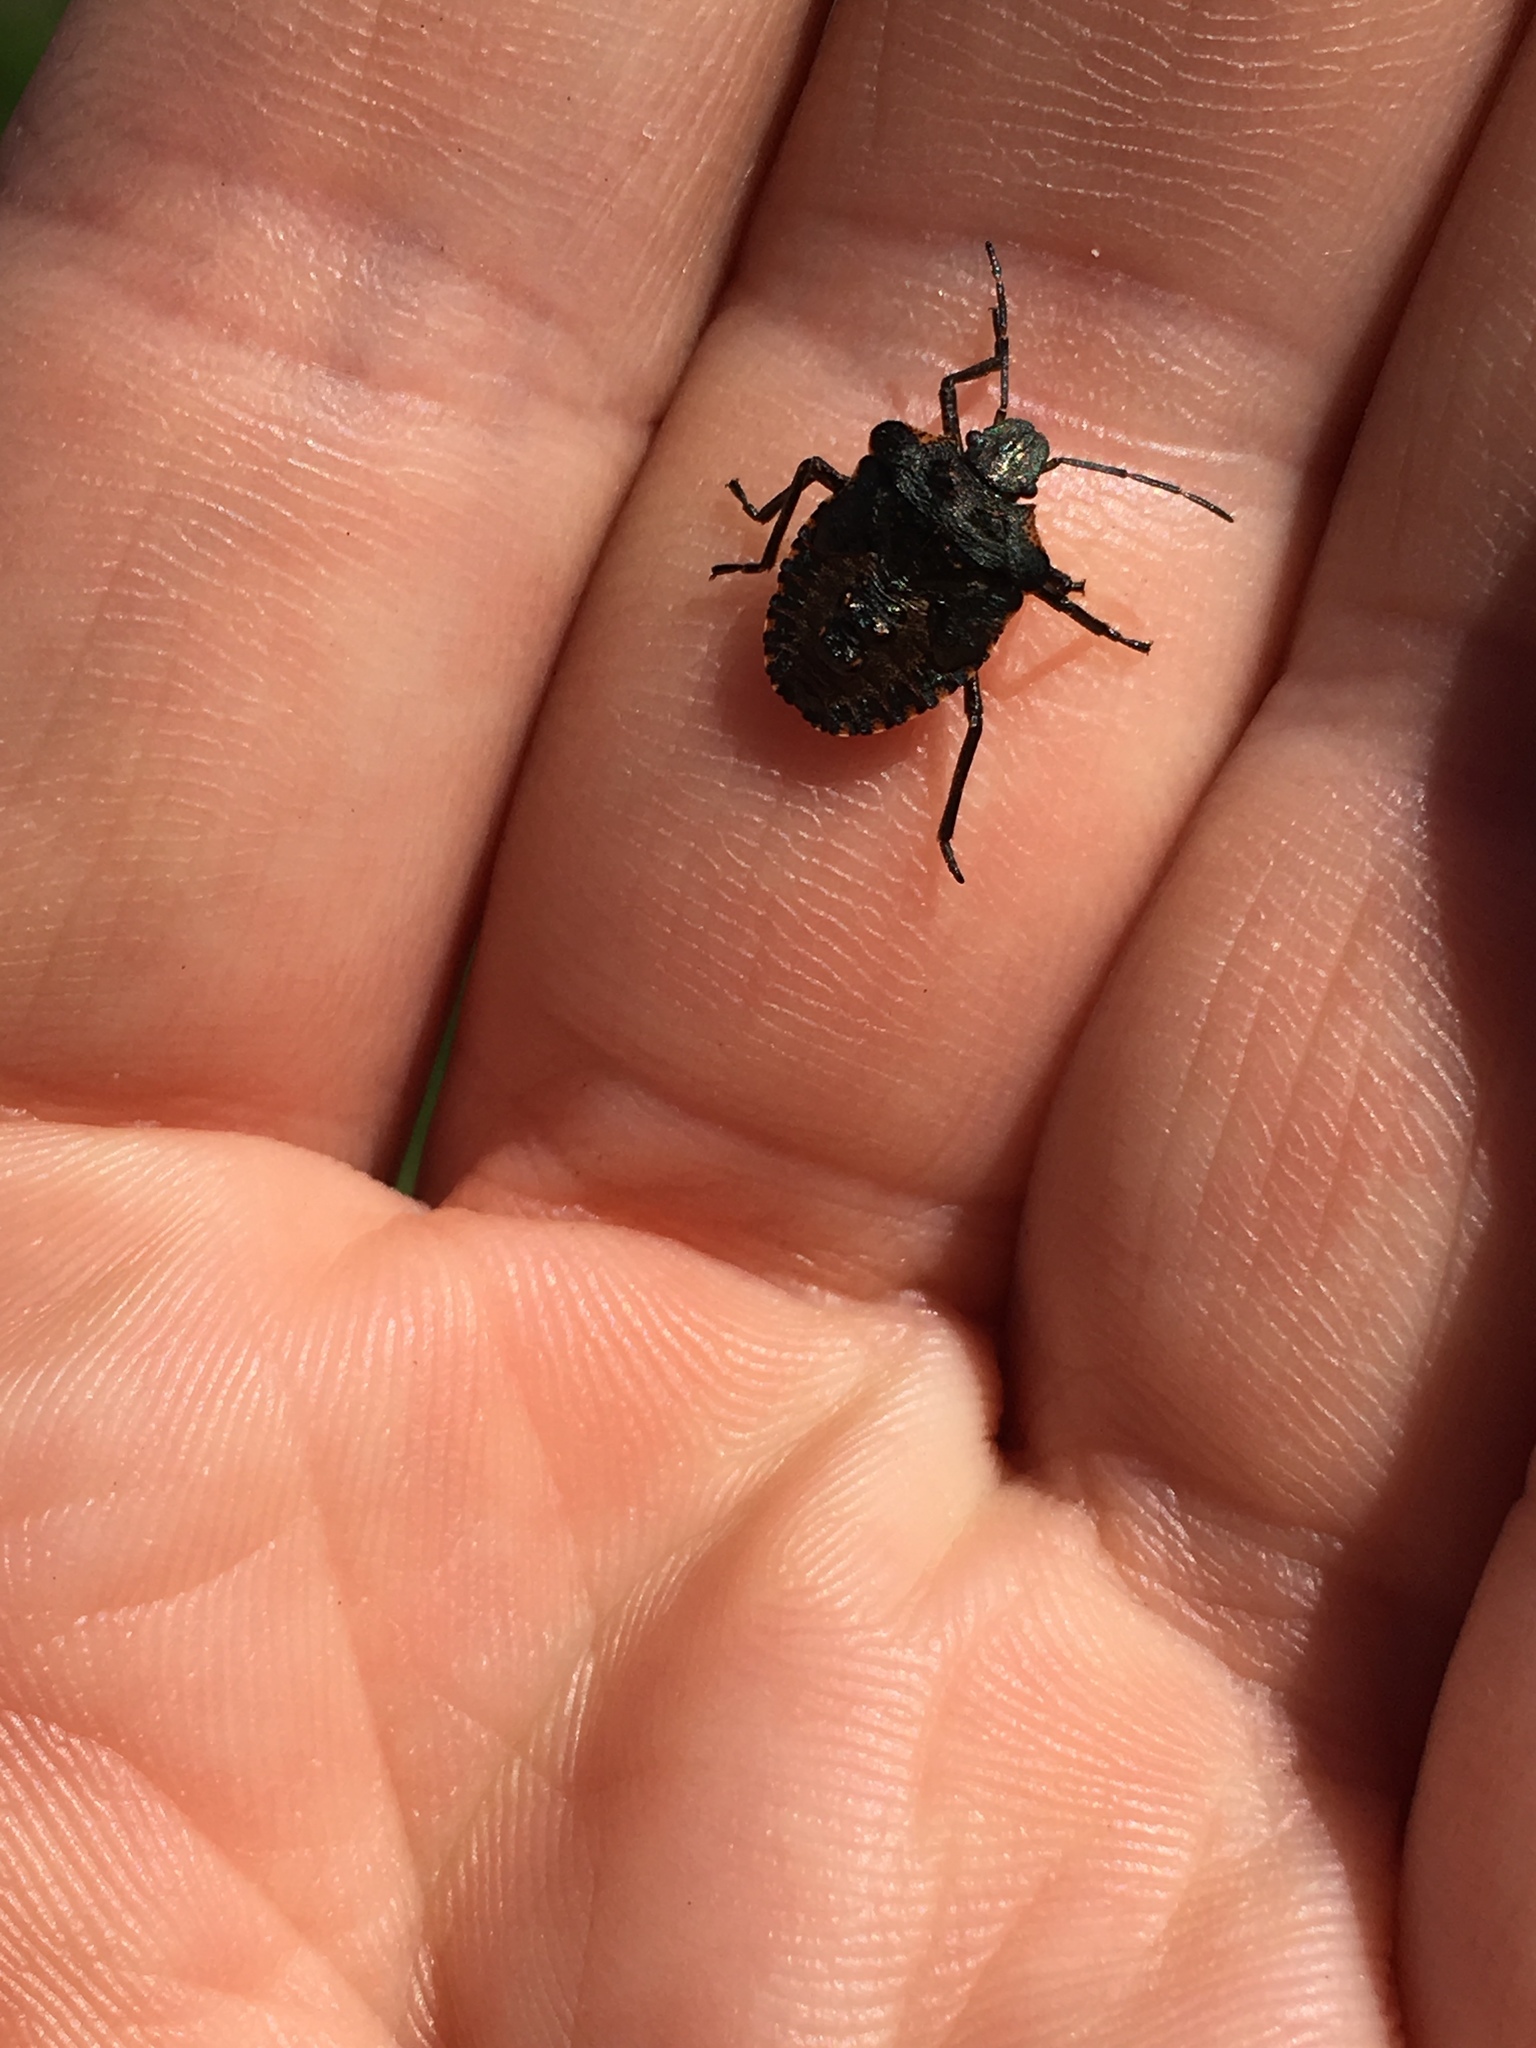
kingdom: Animalia
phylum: Arthropoda
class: Insecta
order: Hemiptera
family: Pentatomidae
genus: Pentatoma
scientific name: Pentatoma rufipes
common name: Forest bug
